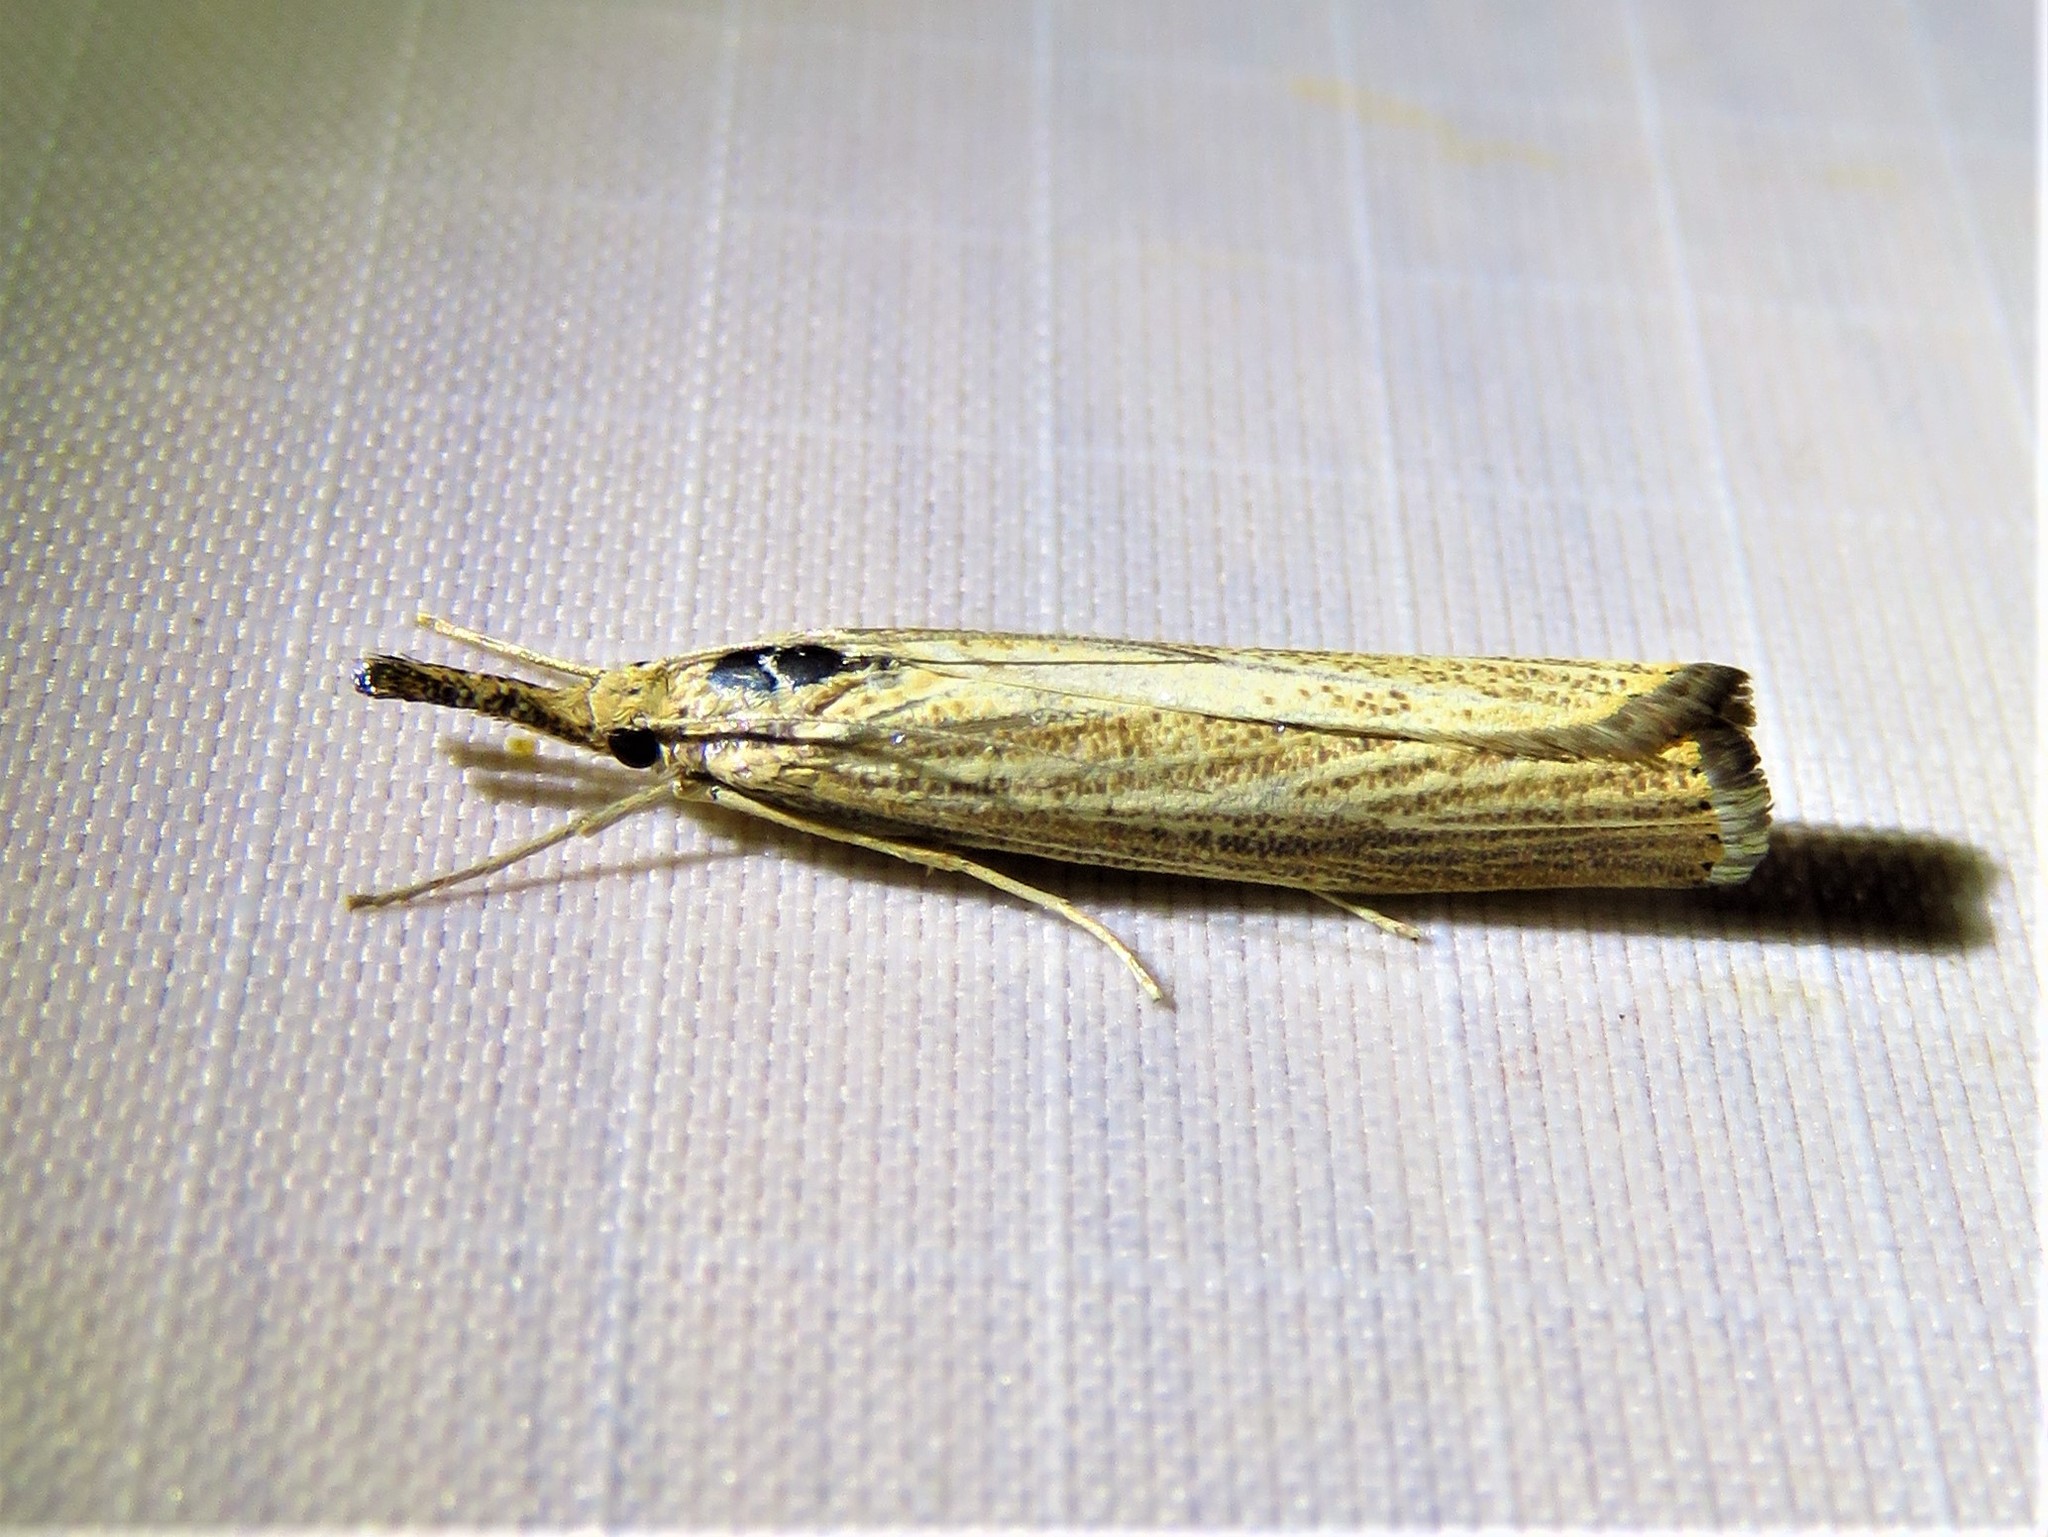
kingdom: Animalia
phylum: Arthropoda
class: Insecta
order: Lepidoptera
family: Crambidae
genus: Agriphila
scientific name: Agriphila vulgivagellus
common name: Vagabond crambus moth
